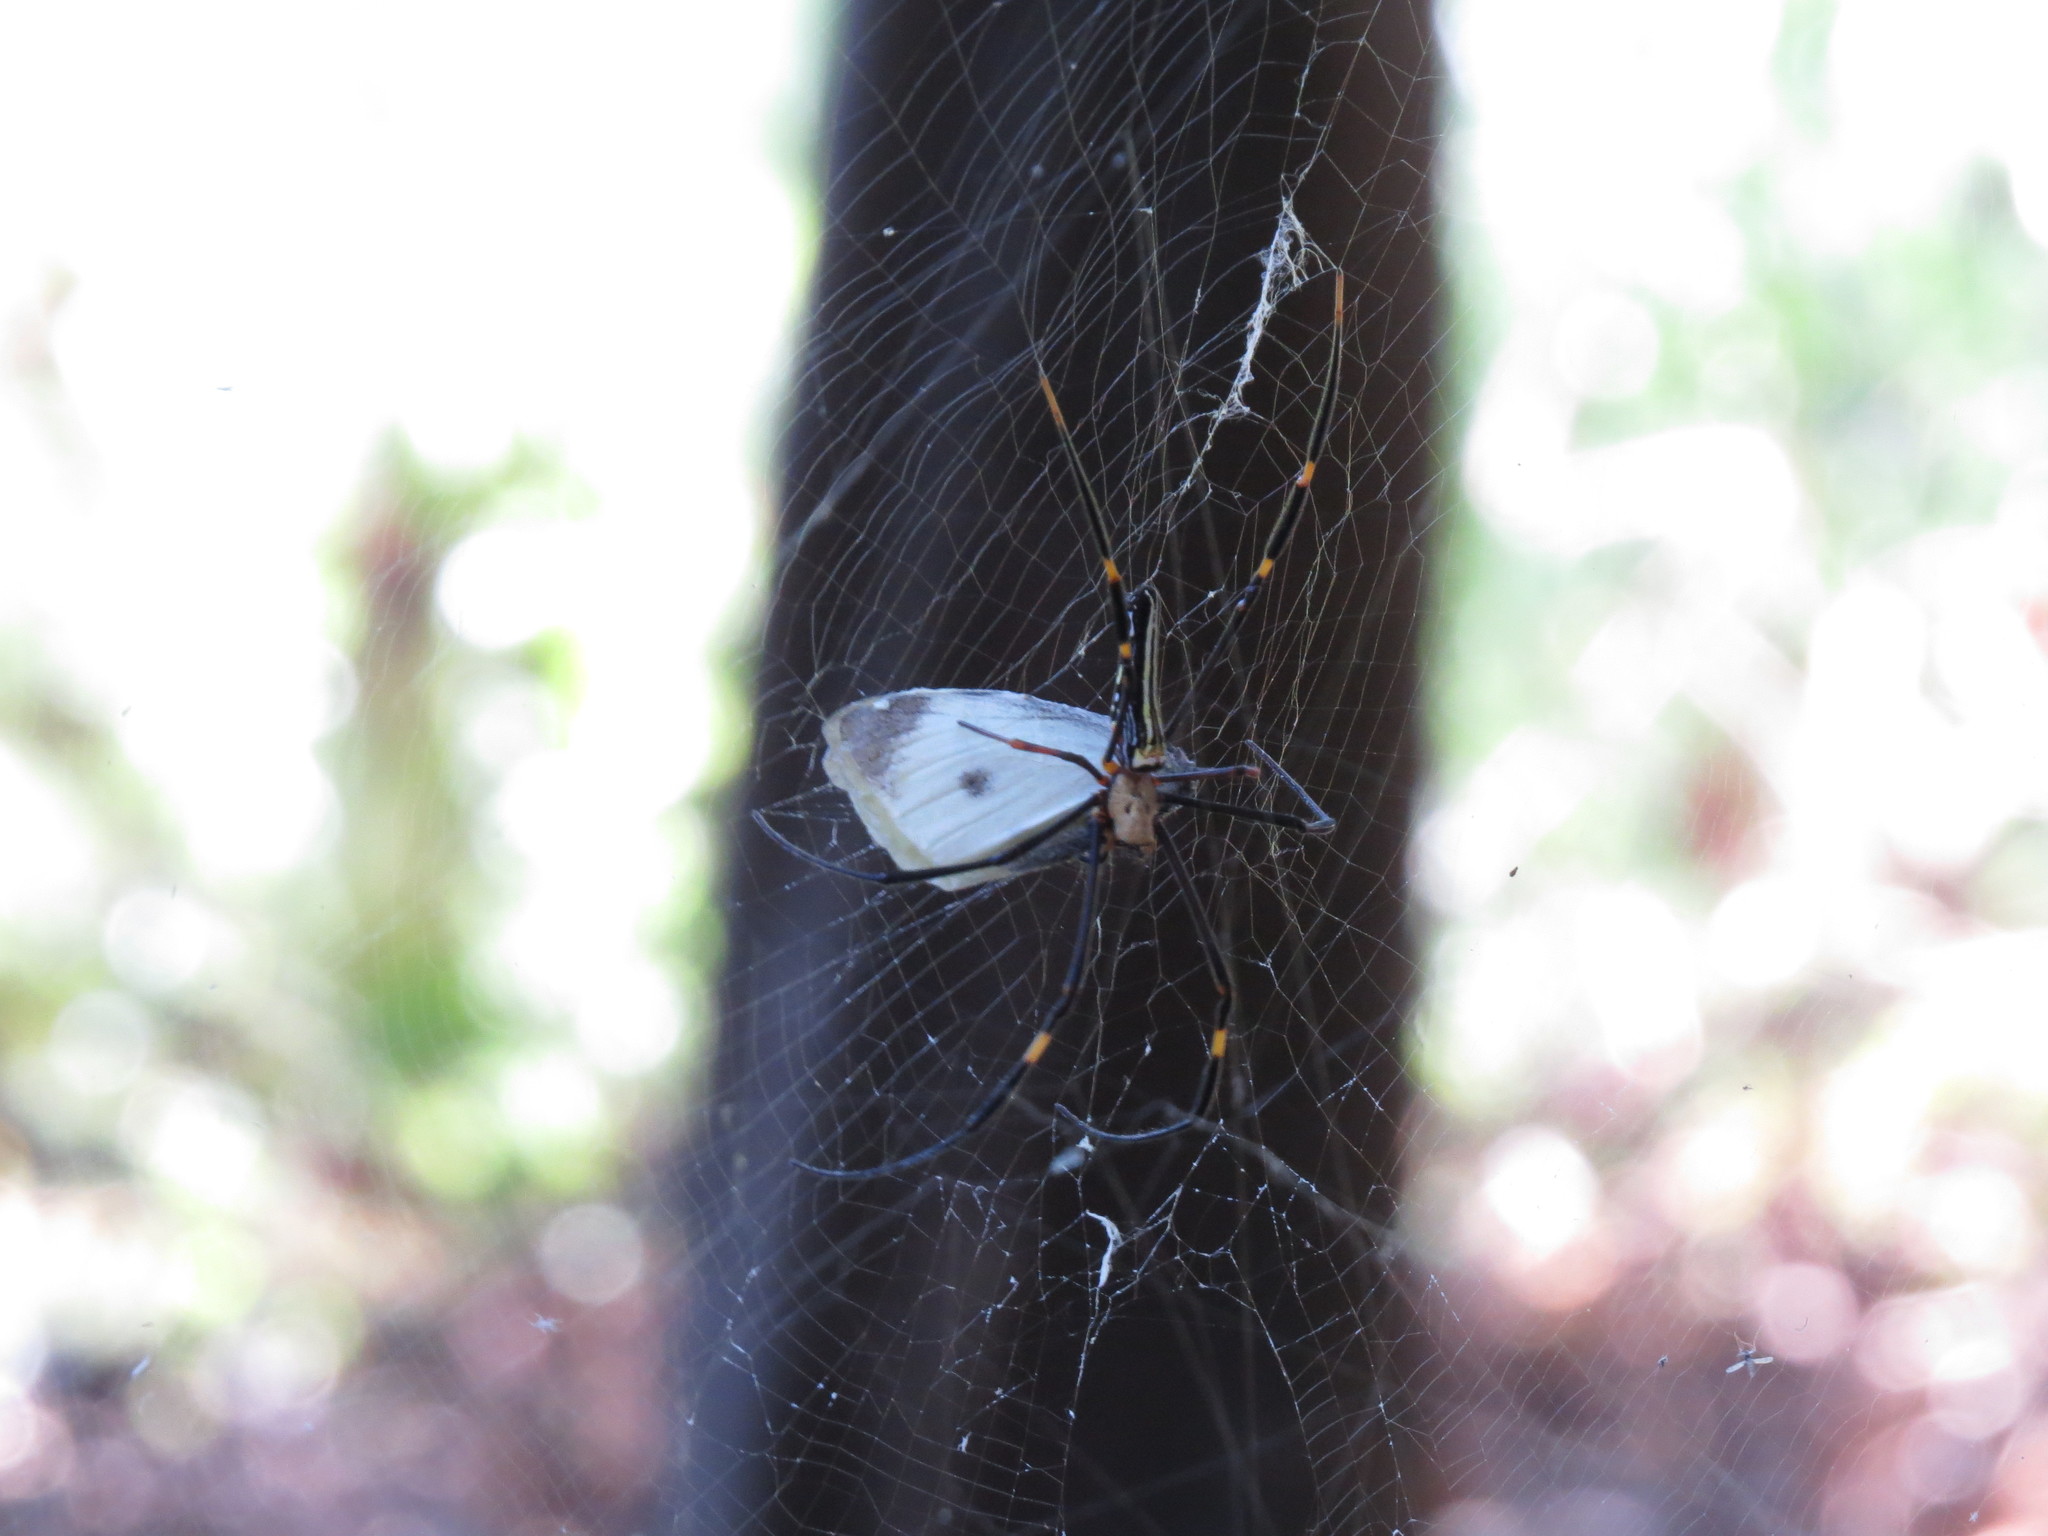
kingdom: Animalia
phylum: Arthropoda
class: Arachnida
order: Araneae
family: Araneidae
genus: Nephila
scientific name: Nephila pilipes
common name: Giant golden orb weaver
